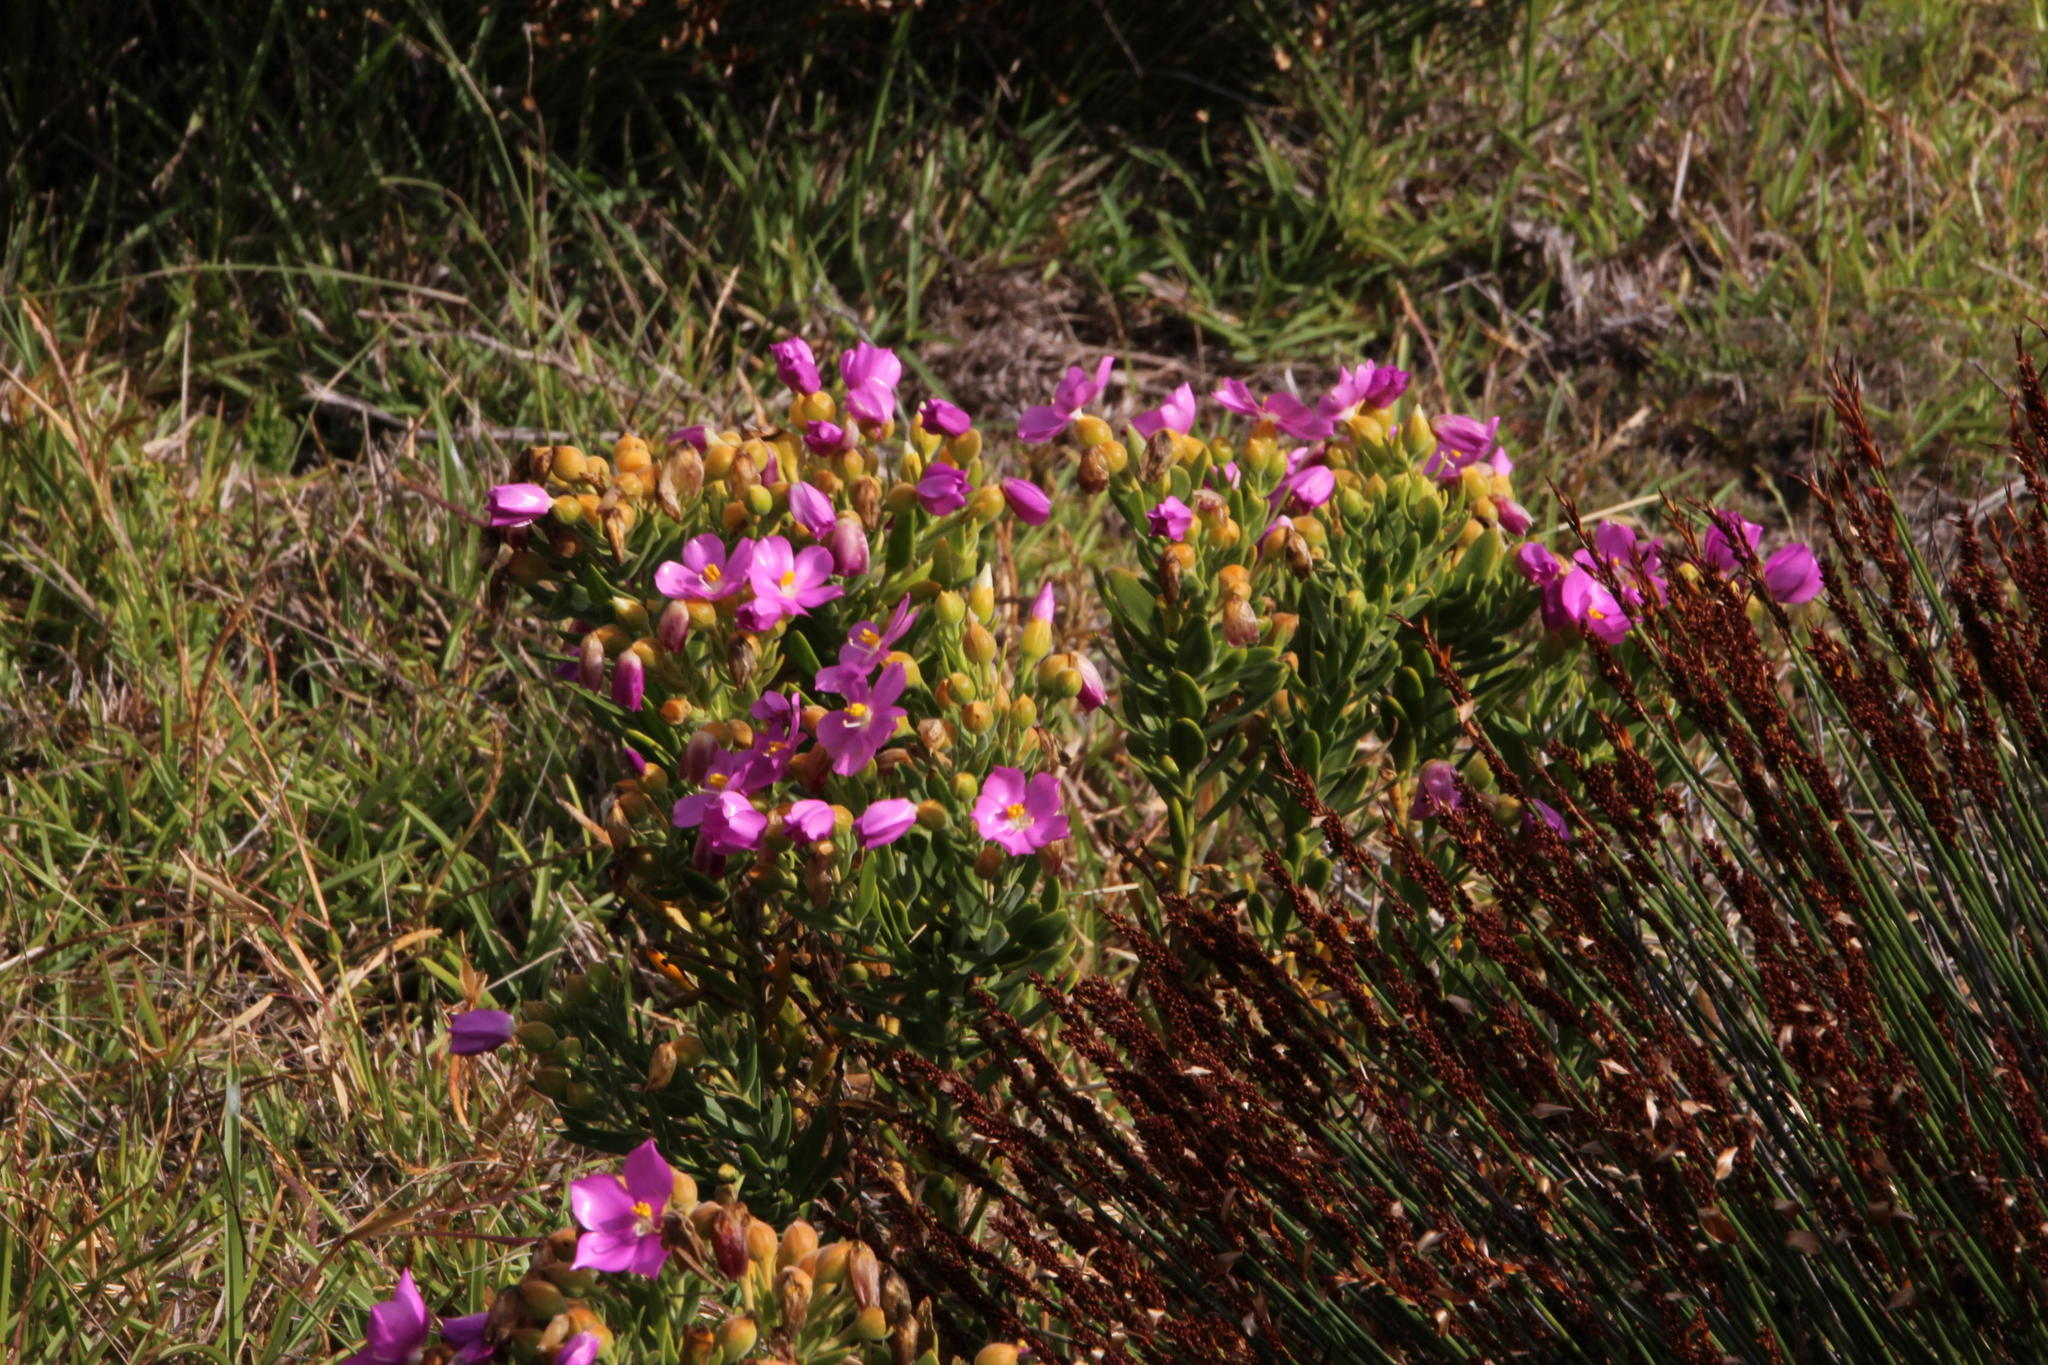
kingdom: Plantae
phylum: Tracheophyta
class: Magnoliopsida
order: Gentianales
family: Gentianaceae
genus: Orphium
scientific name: Orphium frutescens
